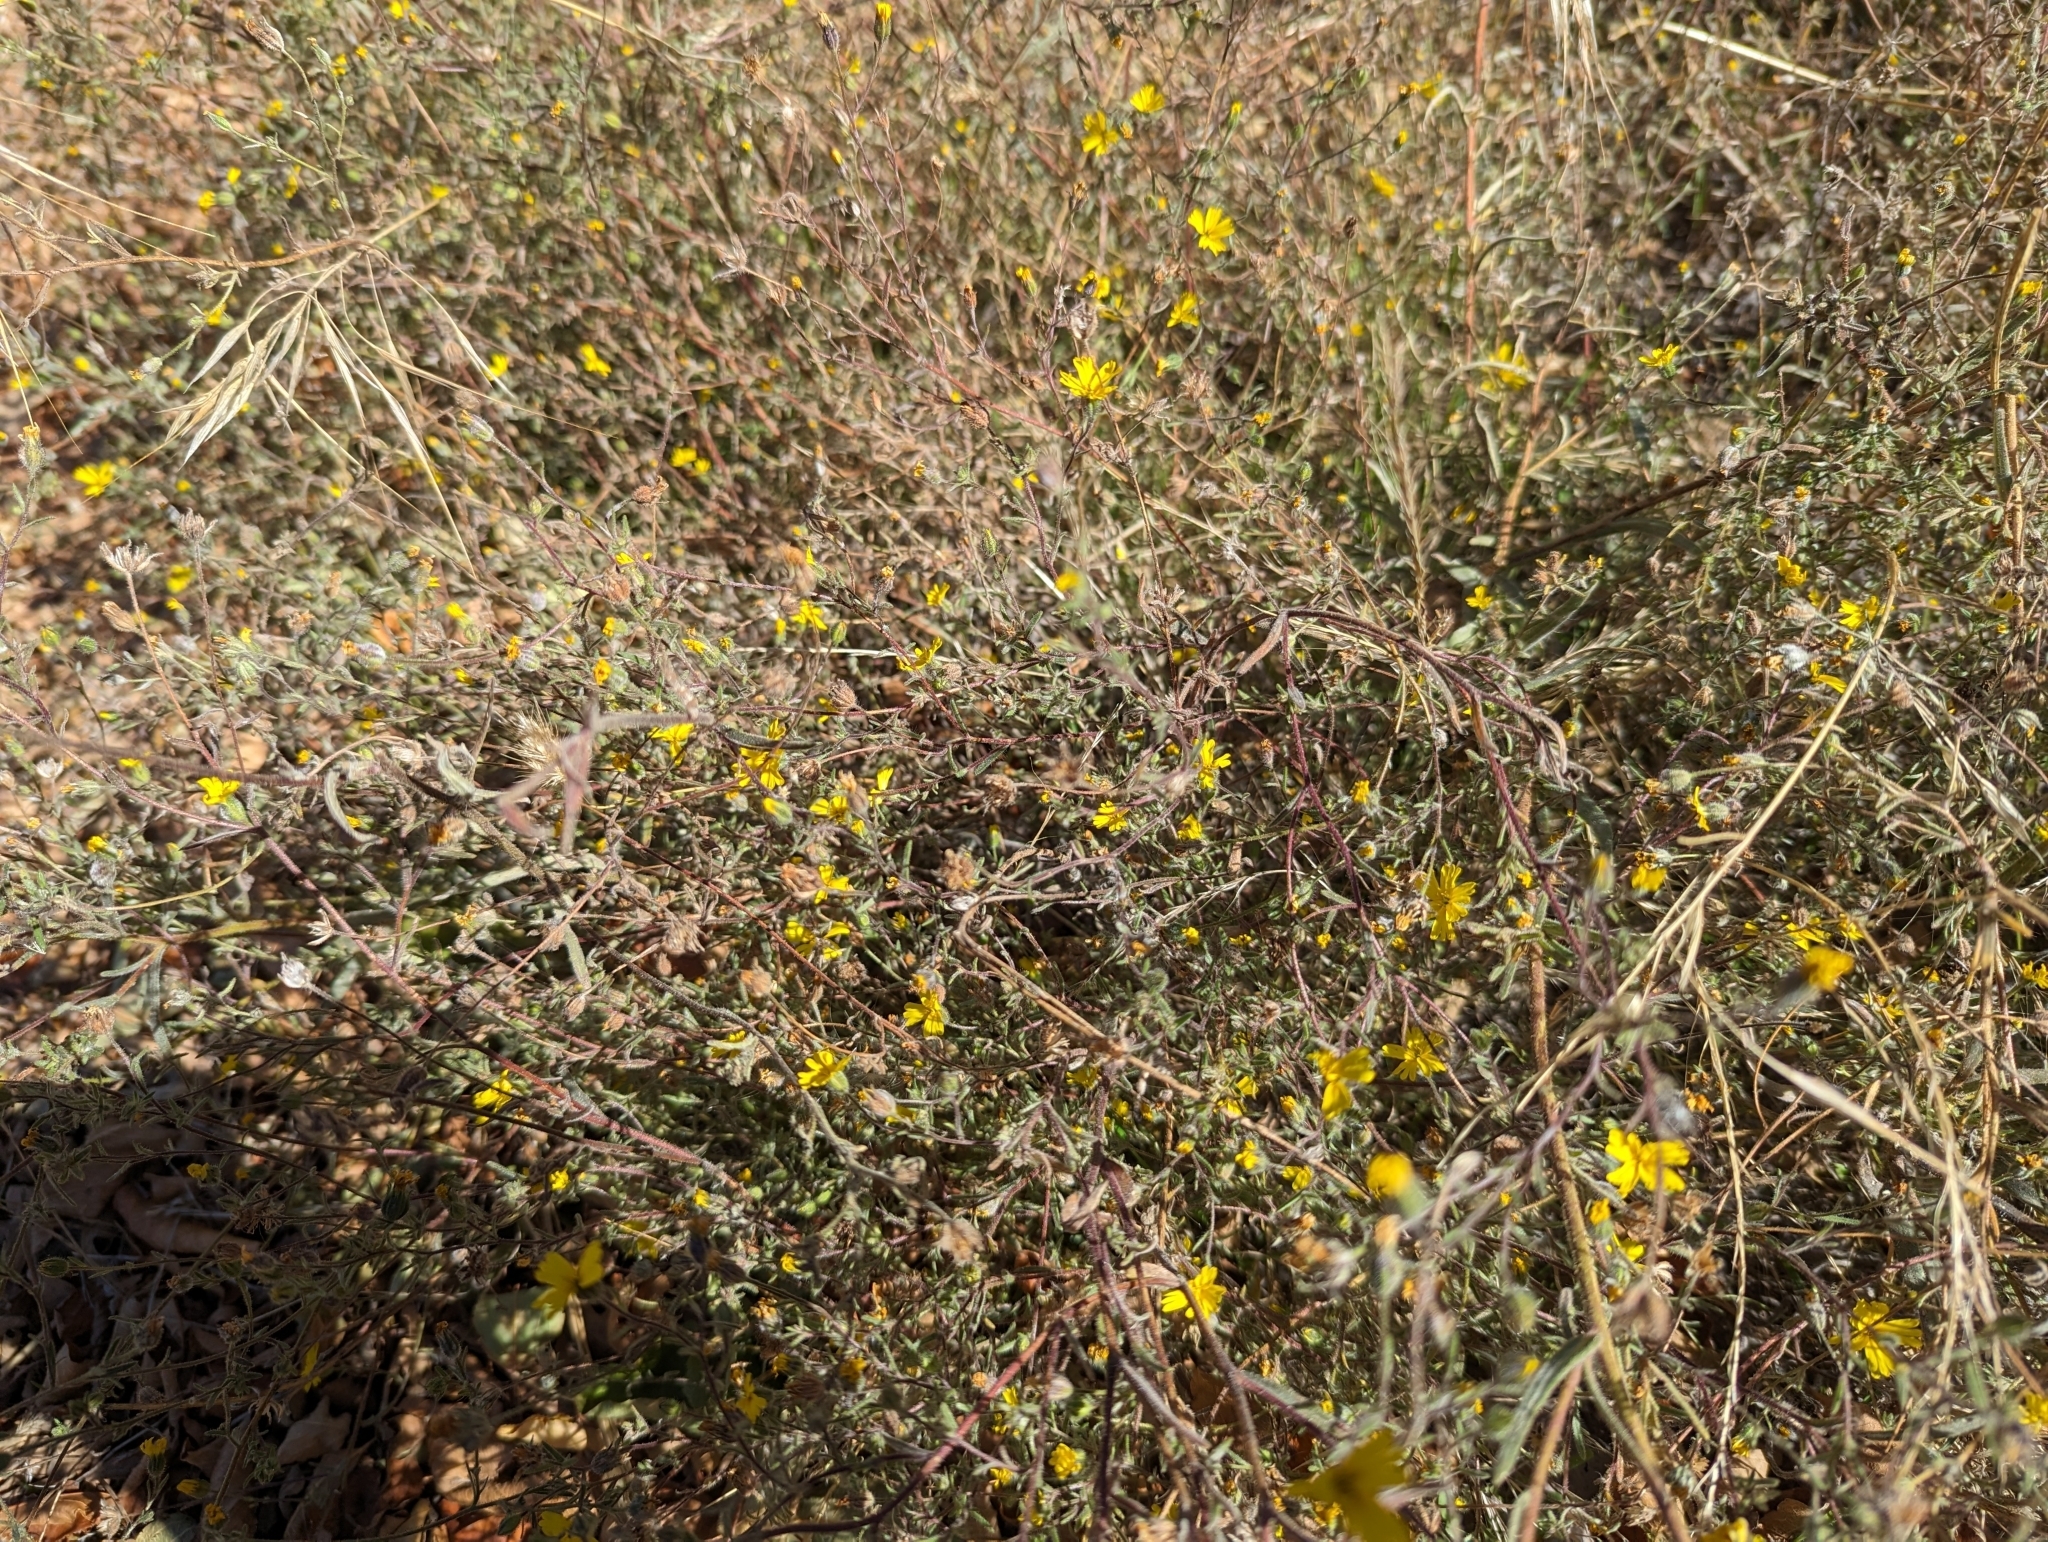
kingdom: Plantae
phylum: Tracheophyta
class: Magnoliopsida
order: Asterales
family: Asteraceae
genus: Madia
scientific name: Madia elegans
